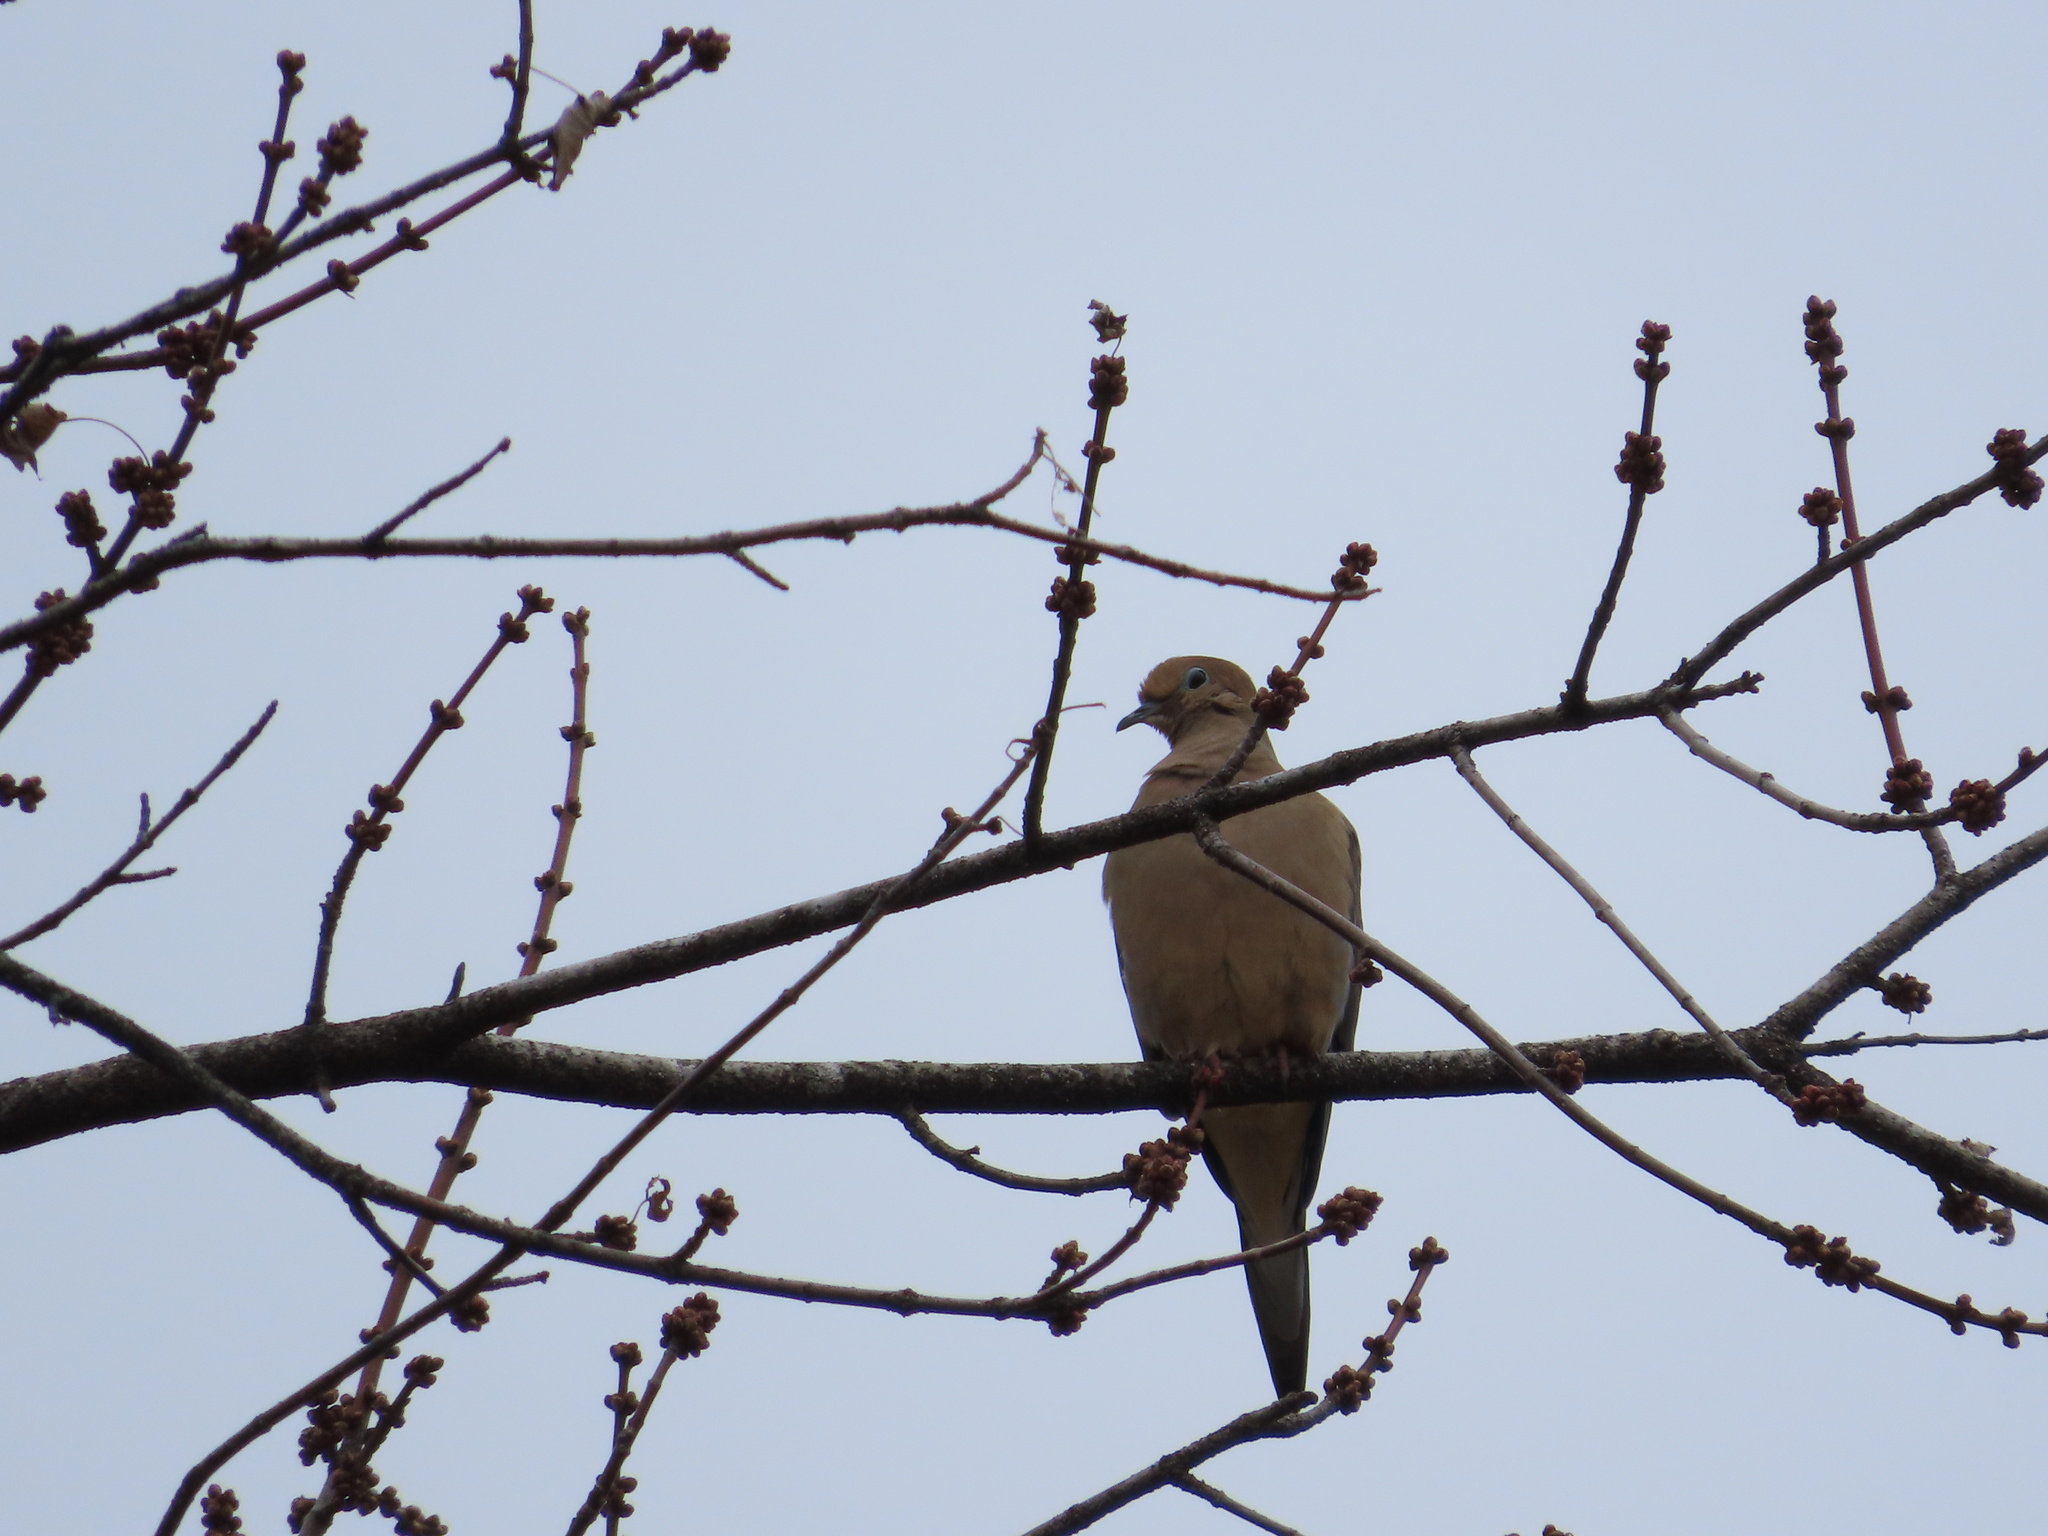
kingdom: Animalia
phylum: Chordata
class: Aves
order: Columbiformes
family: Columbidae
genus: Zenaida
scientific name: Zenaida macroura
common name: Mourning dove
